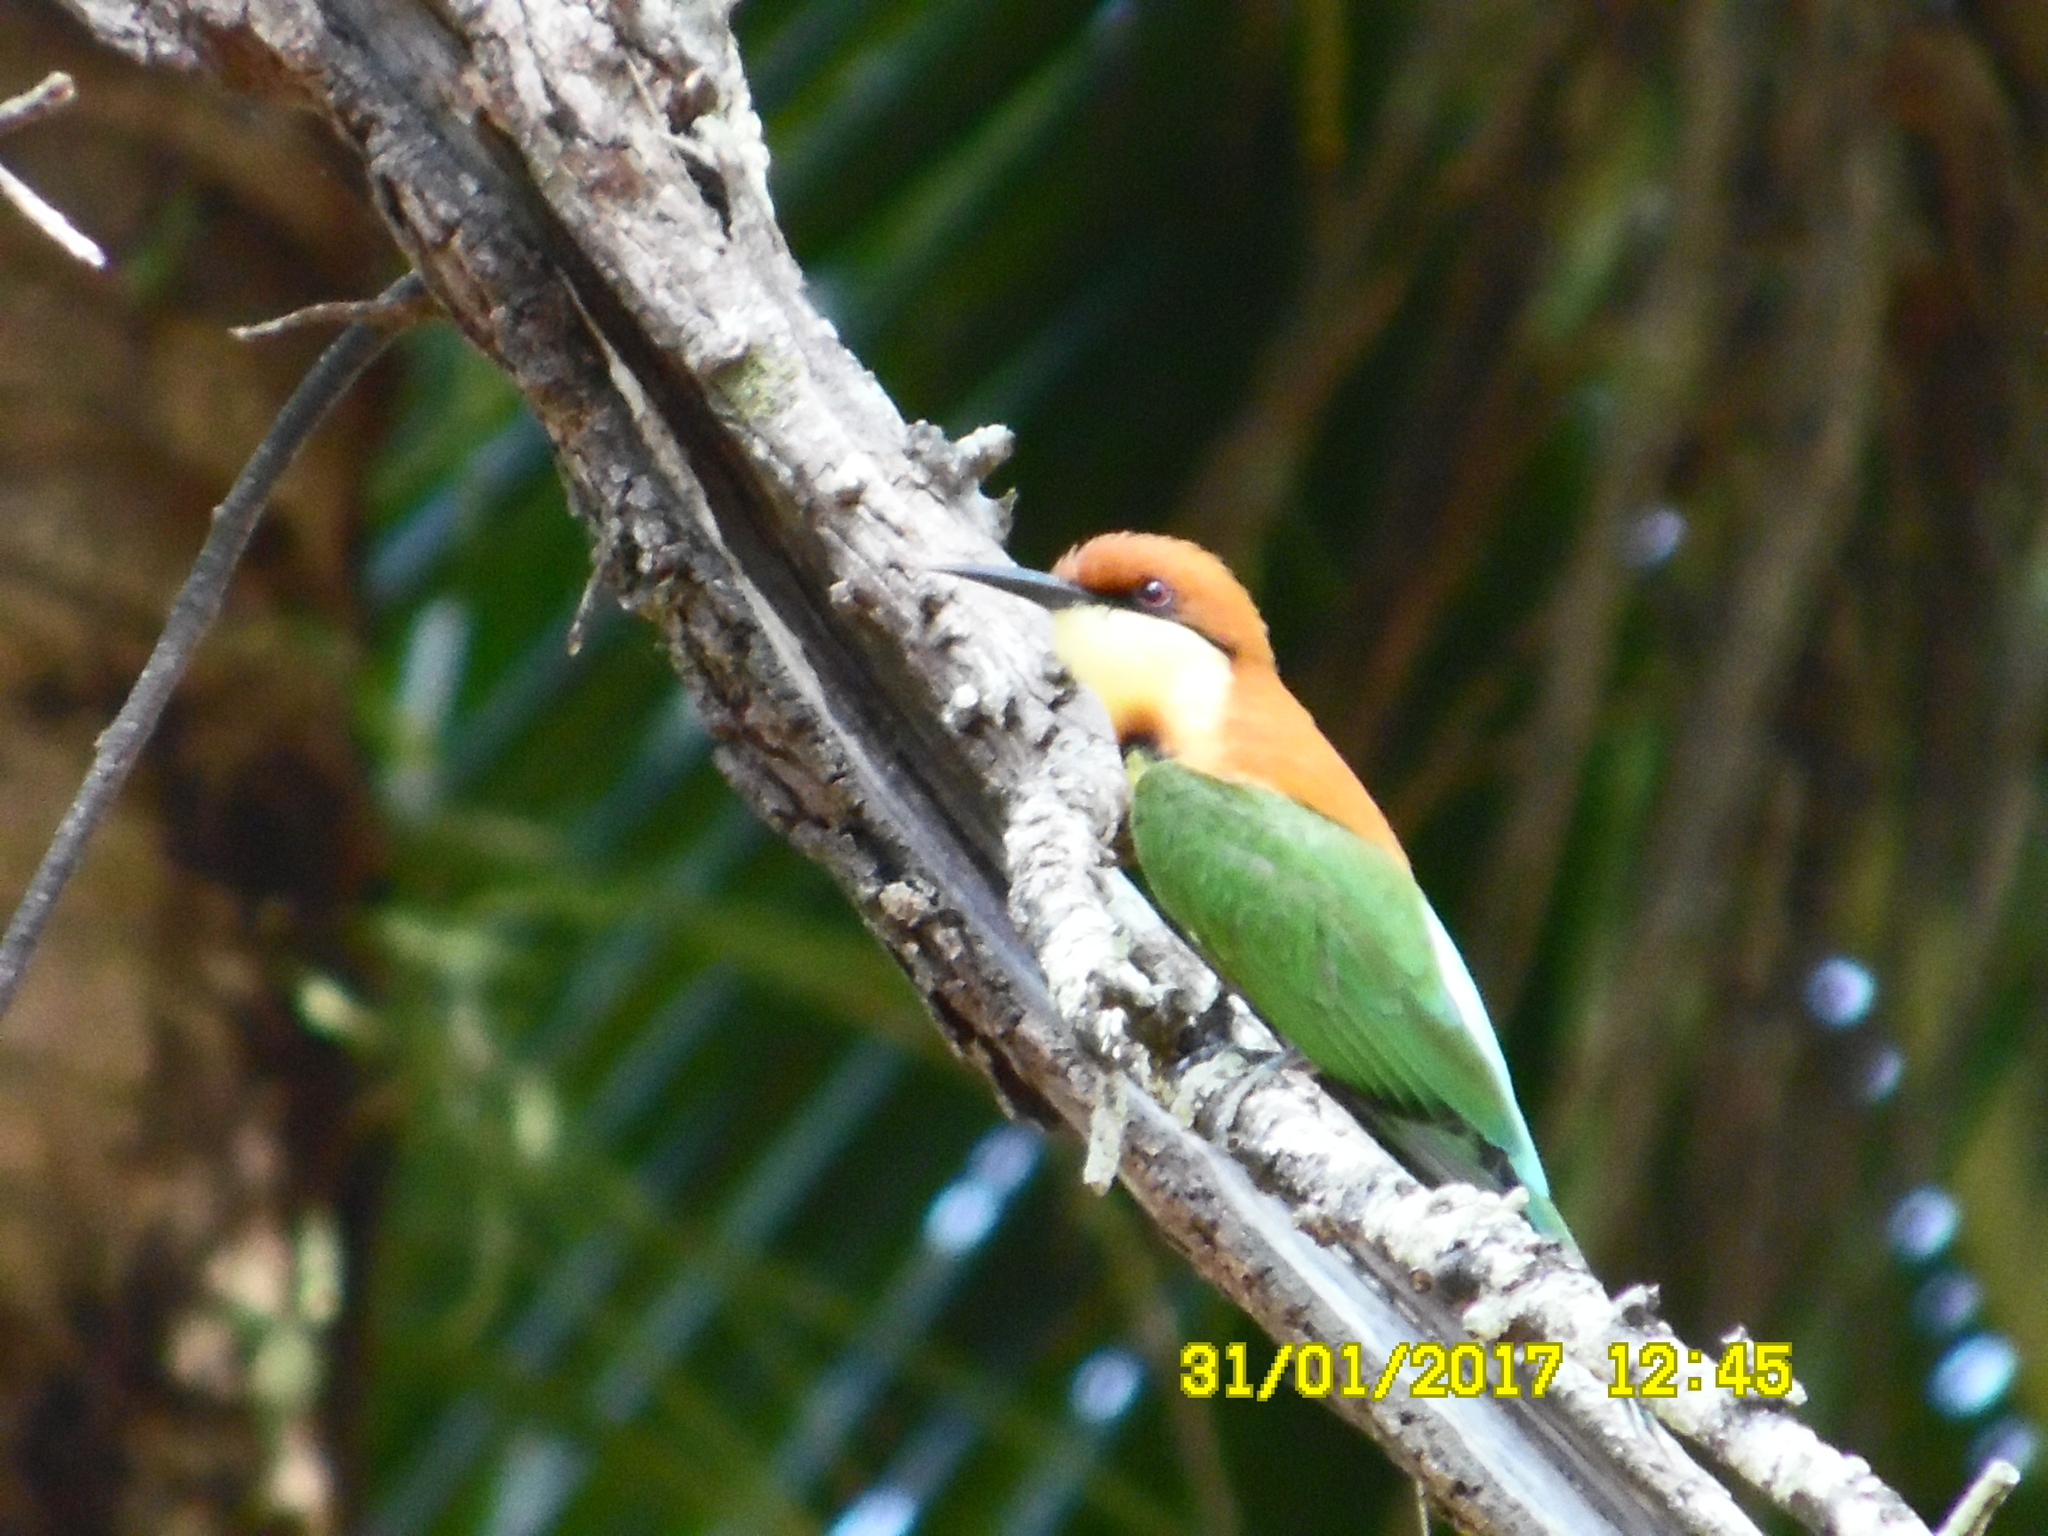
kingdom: Animalia
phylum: Chordata
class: Aves
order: Coraciiformes
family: Meropidae
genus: Merops
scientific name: Merops leschenaulti
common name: Chestnut-headed bee-eater
